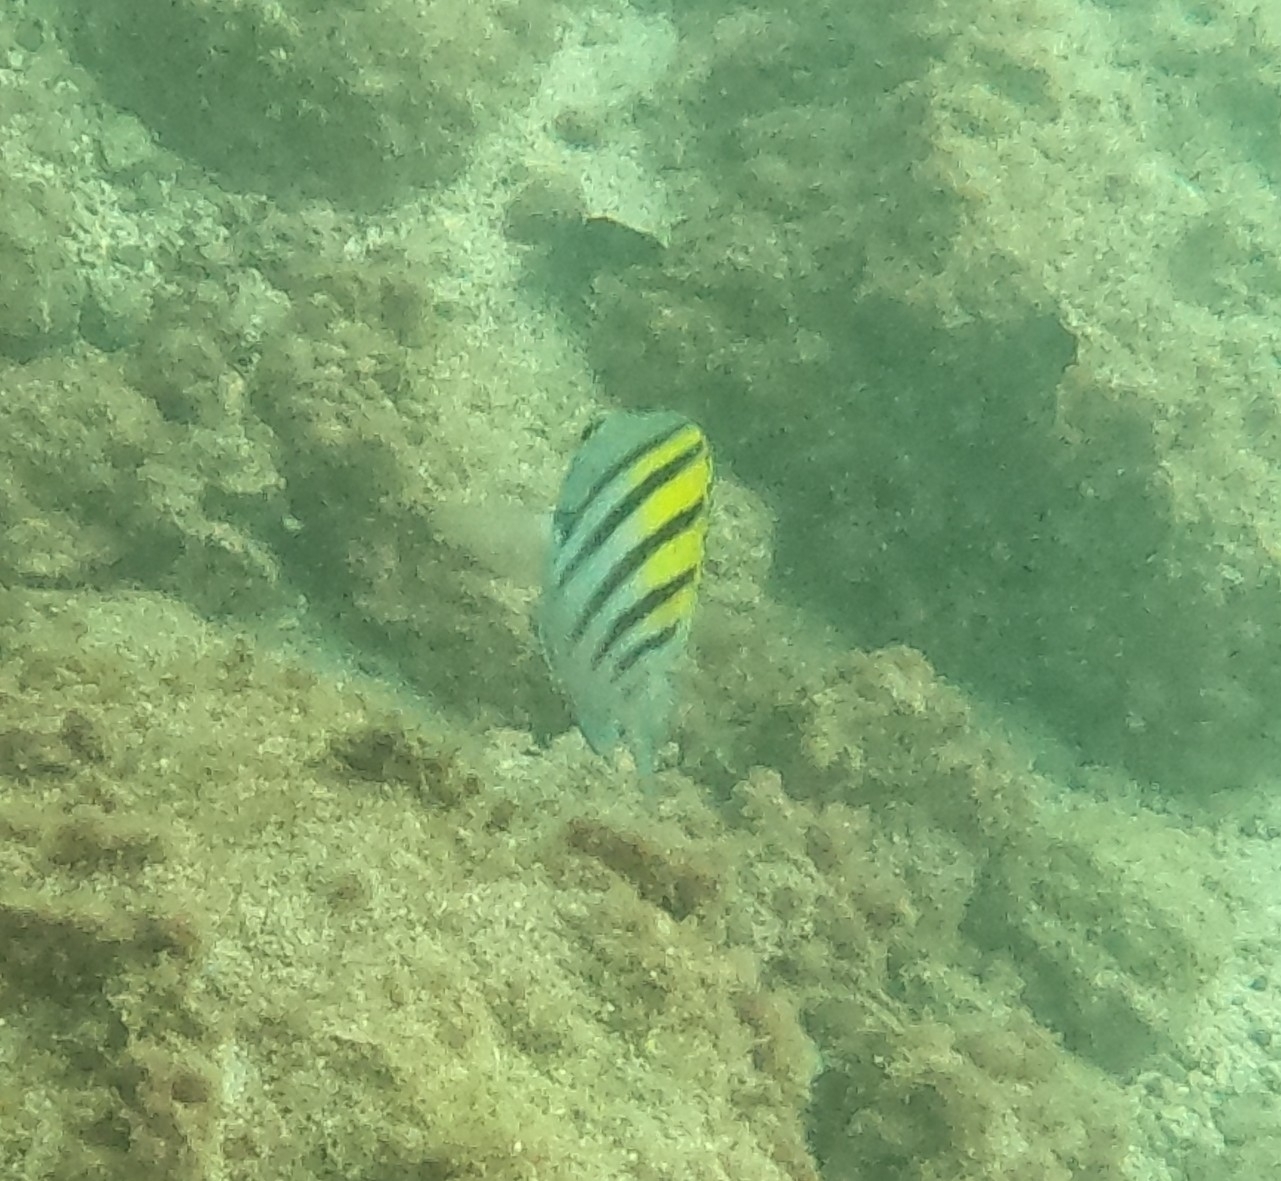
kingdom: Animalia
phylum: Chordata
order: Perciformes
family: Pomacentridae
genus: Abudefduf
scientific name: Abudefduf troschelii
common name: Panamic sergeant major
